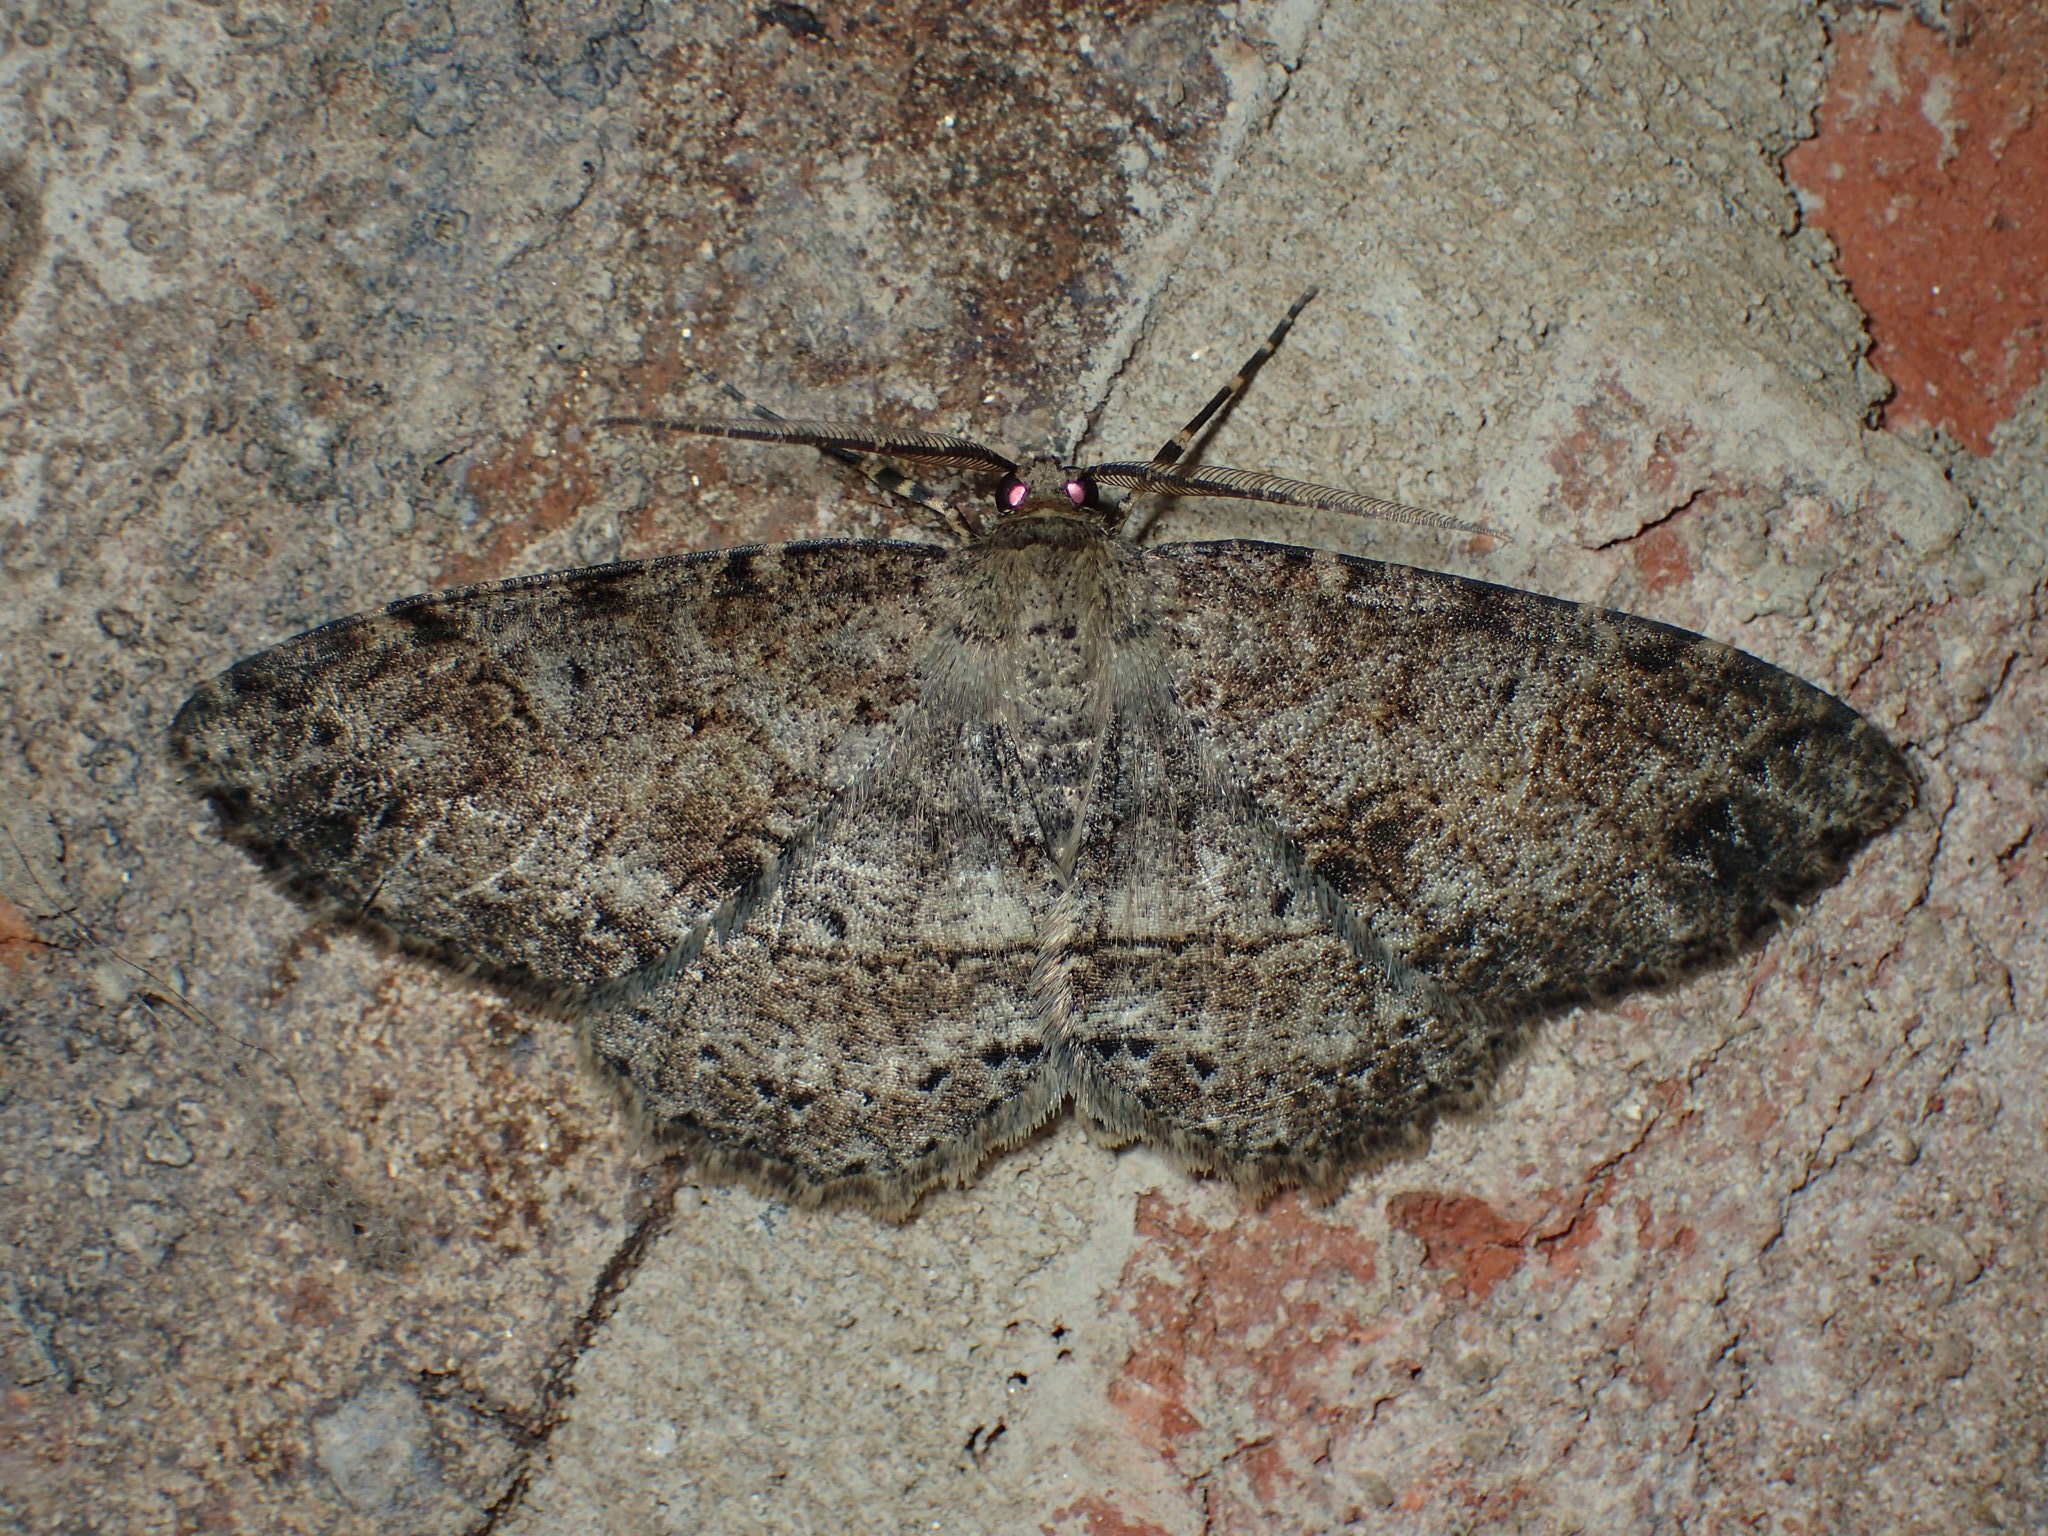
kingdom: Animalia
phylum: Arthropoda
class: Insecta
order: Lepidoptera
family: Geometridae
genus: Melanolophia
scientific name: Melanolophia canadaria
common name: Canadian melanolophia
